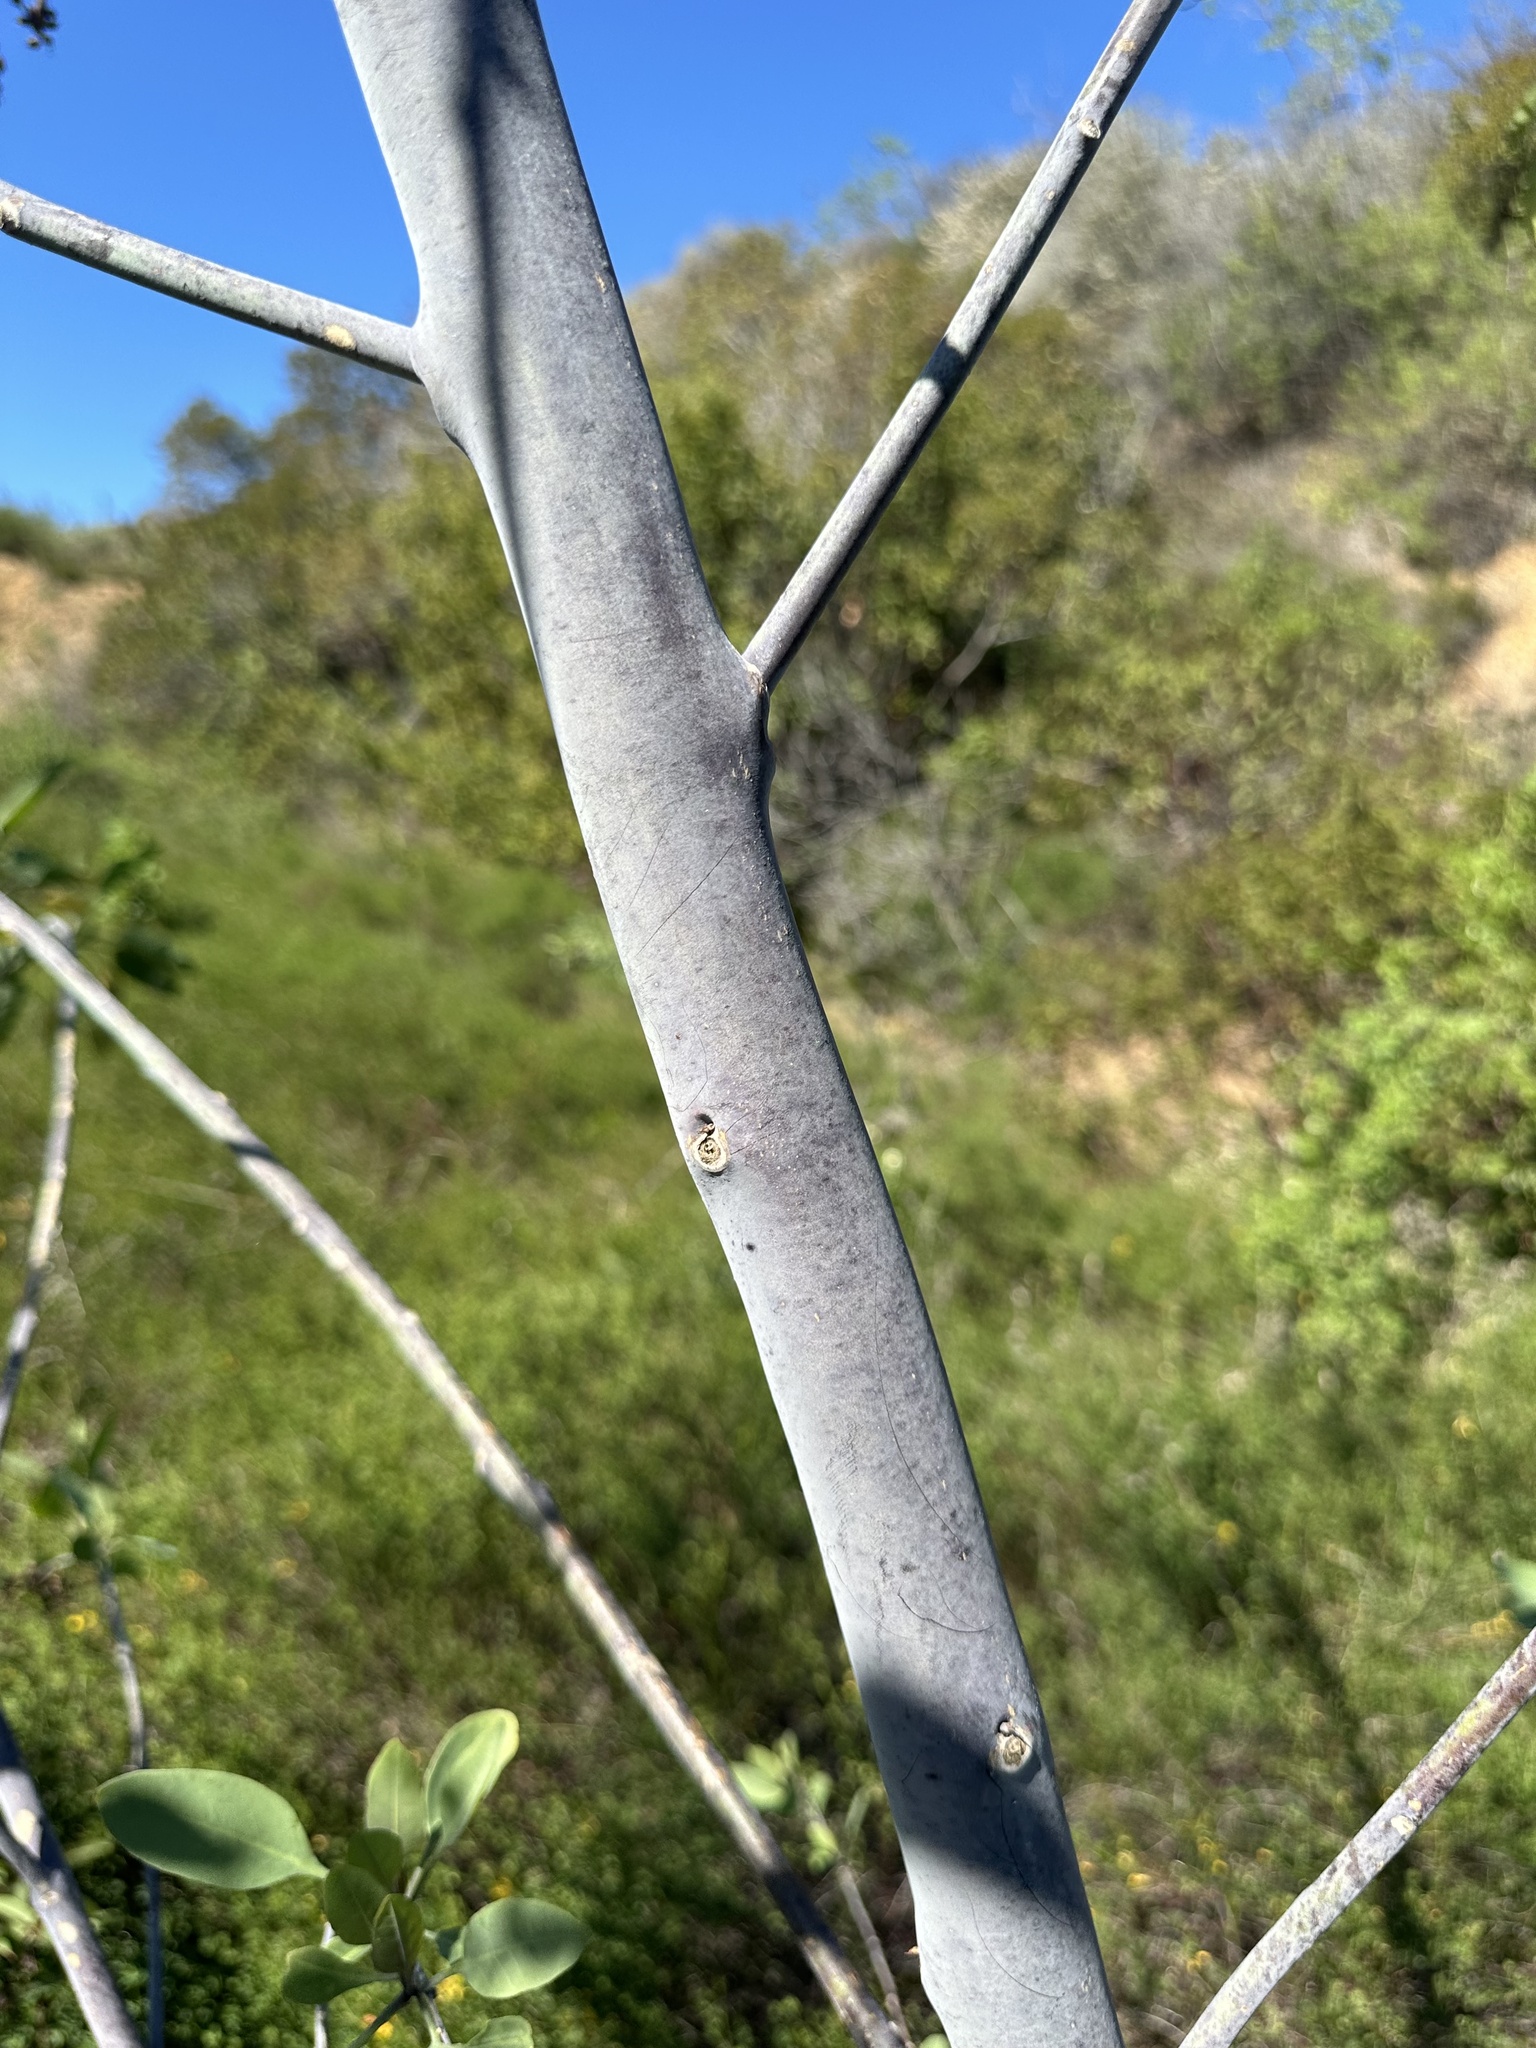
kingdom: Plantae
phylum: Tracheophyta
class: Magnoliopsida
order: Solanales
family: Solanaceae
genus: Nicotiana
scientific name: Nicotiana glauca
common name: Tree tobacco
